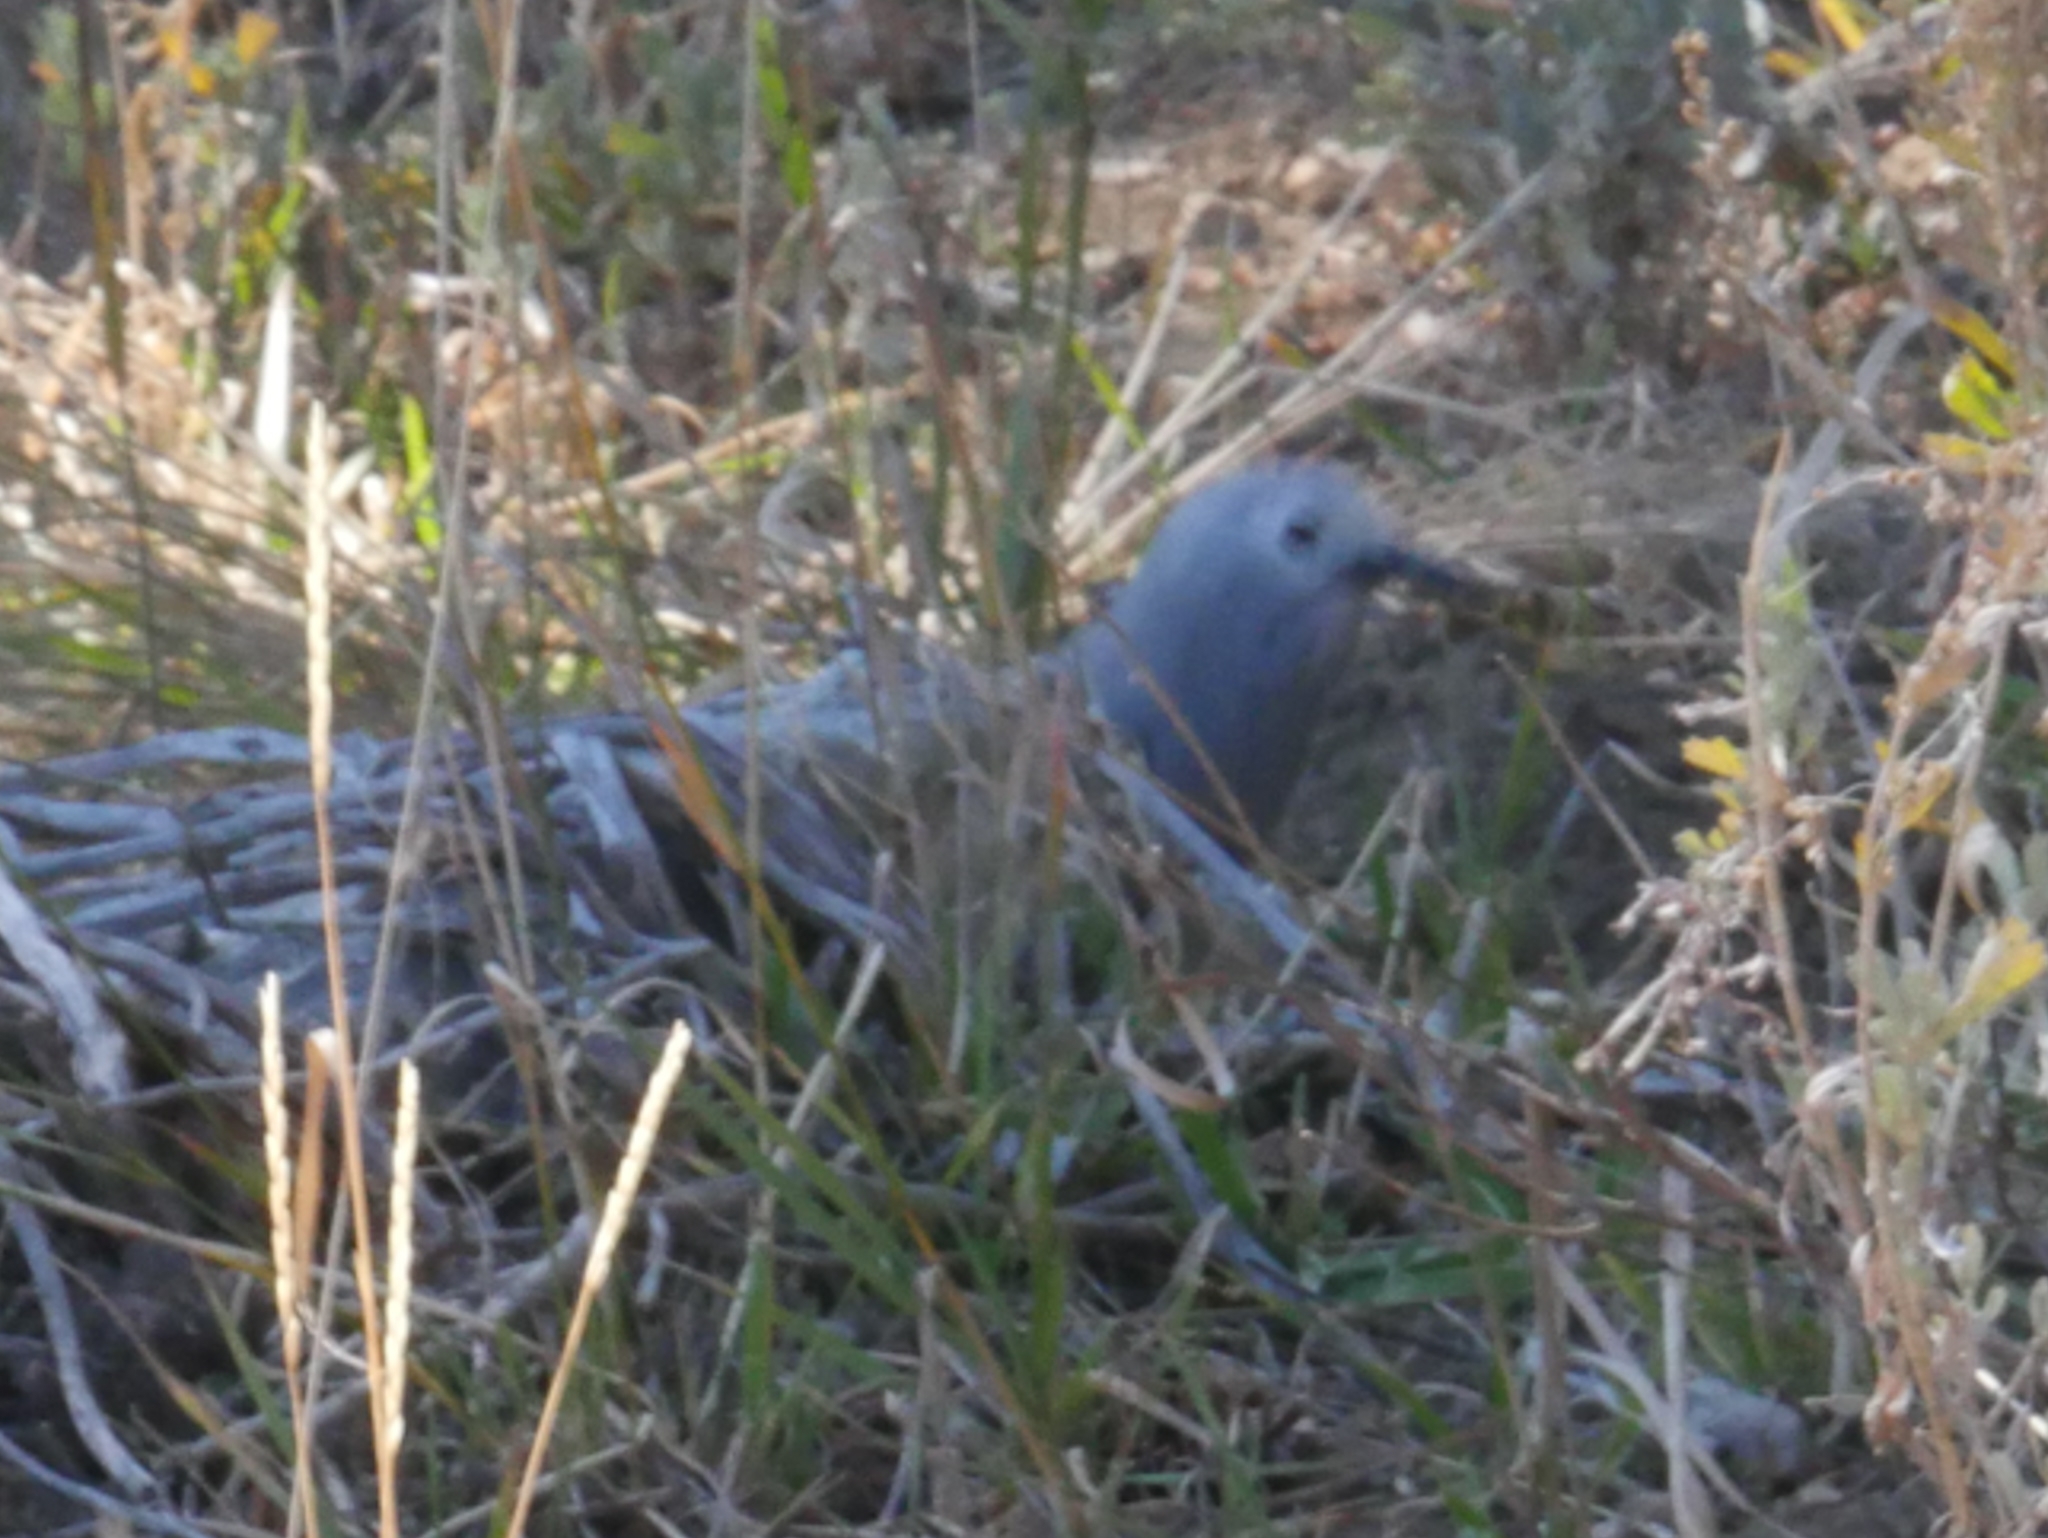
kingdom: Animalia
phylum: Chordata
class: Aves
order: Passeriformes
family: Corvidae
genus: Nucifraga
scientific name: Nucifraga columbiana
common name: Clark's nutcracker
